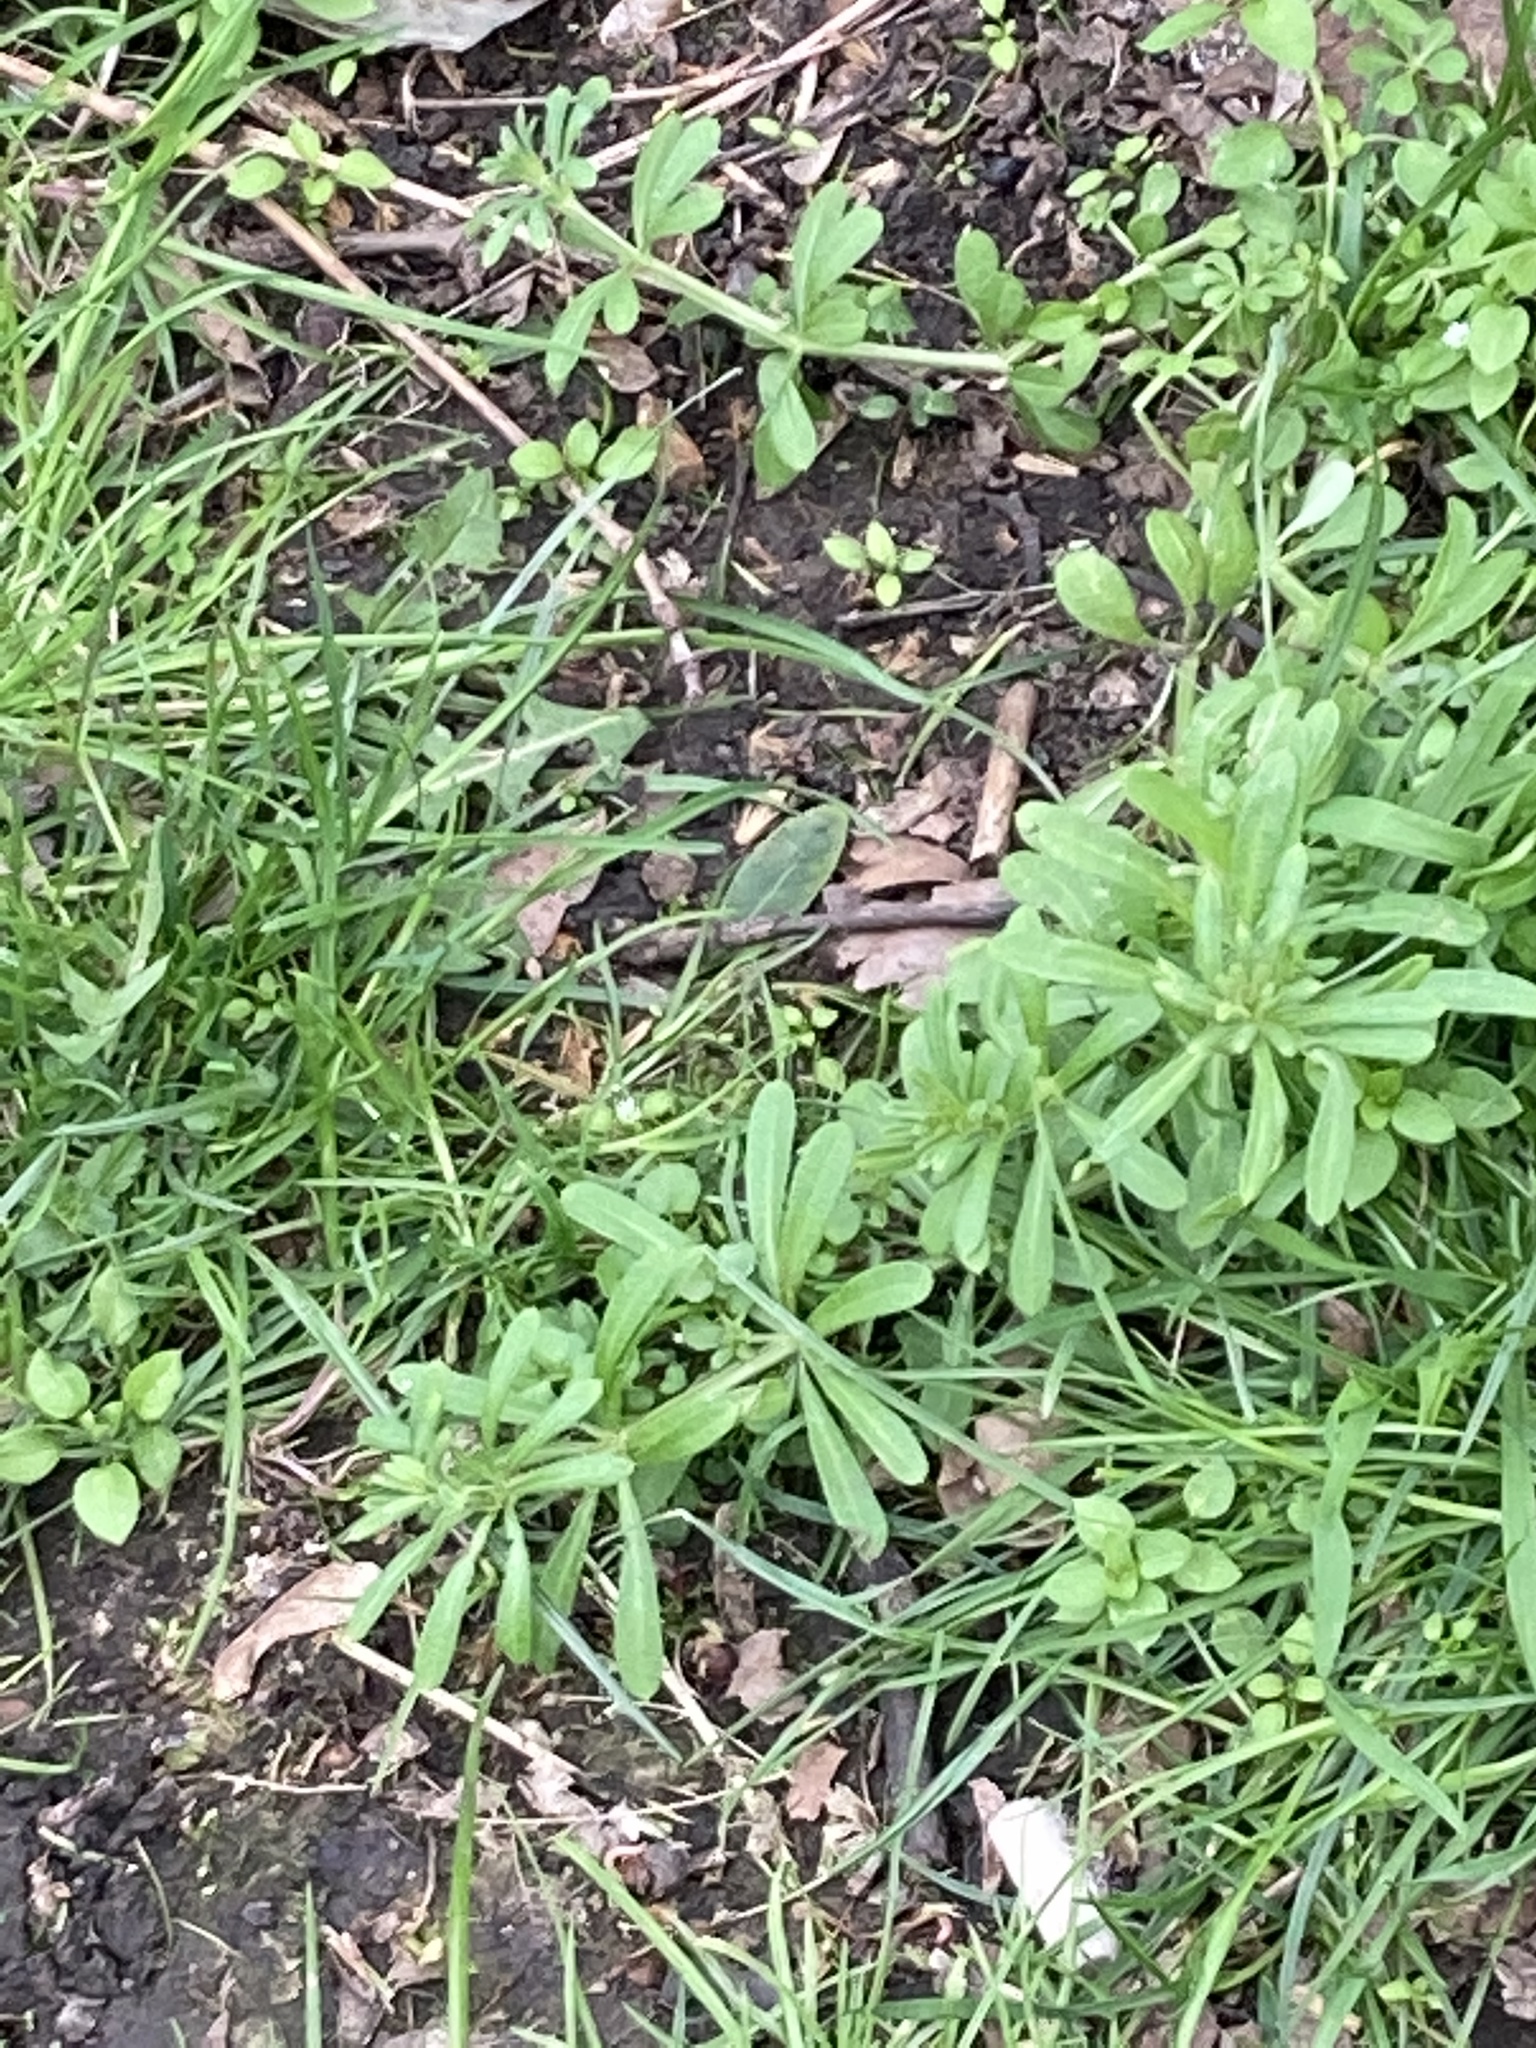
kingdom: Plantae
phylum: Tracheophyta
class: Magnoliopsida
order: Gentianales
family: Rubiaceae
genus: Galium
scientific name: Galium aparine
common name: Cleavers
